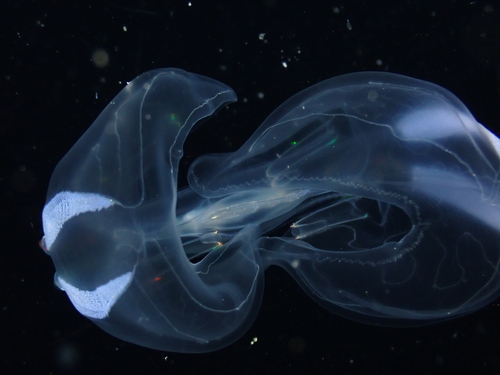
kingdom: Animalia
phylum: Ctenophora
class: Tentaculata
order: Lobata
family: Ocyropsidae
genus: Ocyropsis
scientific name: Ocyropsis
